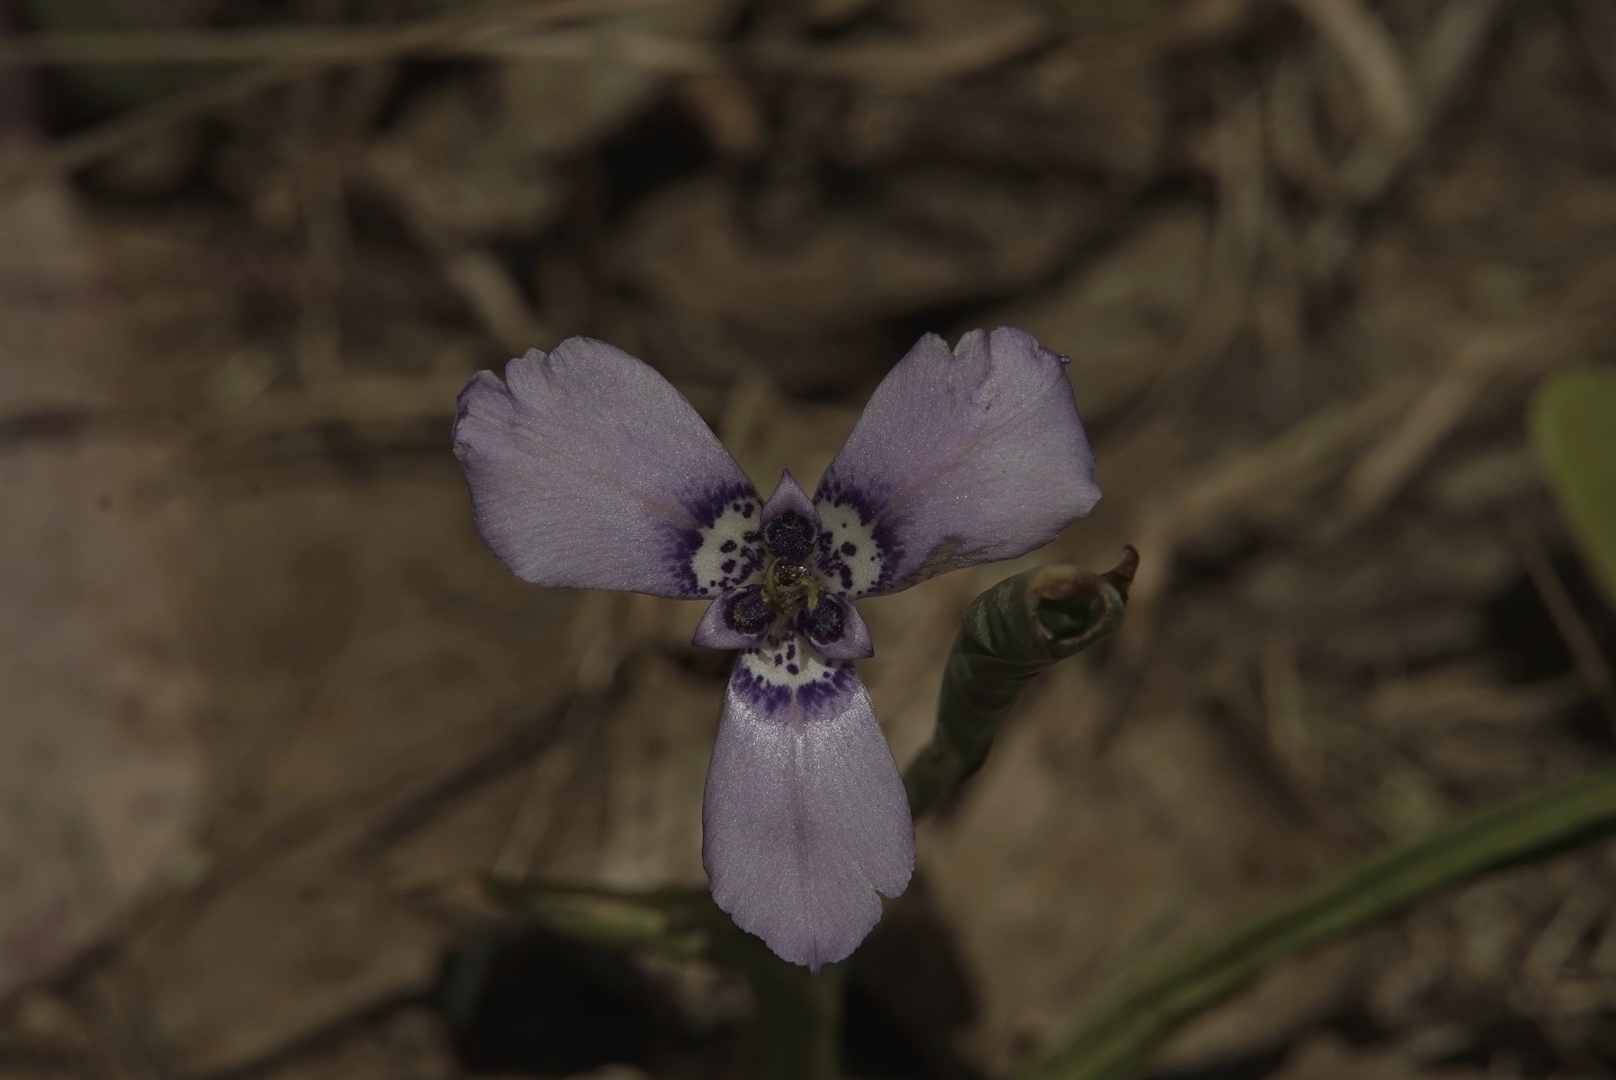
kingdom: Plantae
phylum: Tracheophyta
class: Liliopsida
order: Asparagales
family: Iridaceae
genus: Herbertia
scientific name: Herbertia lahue
